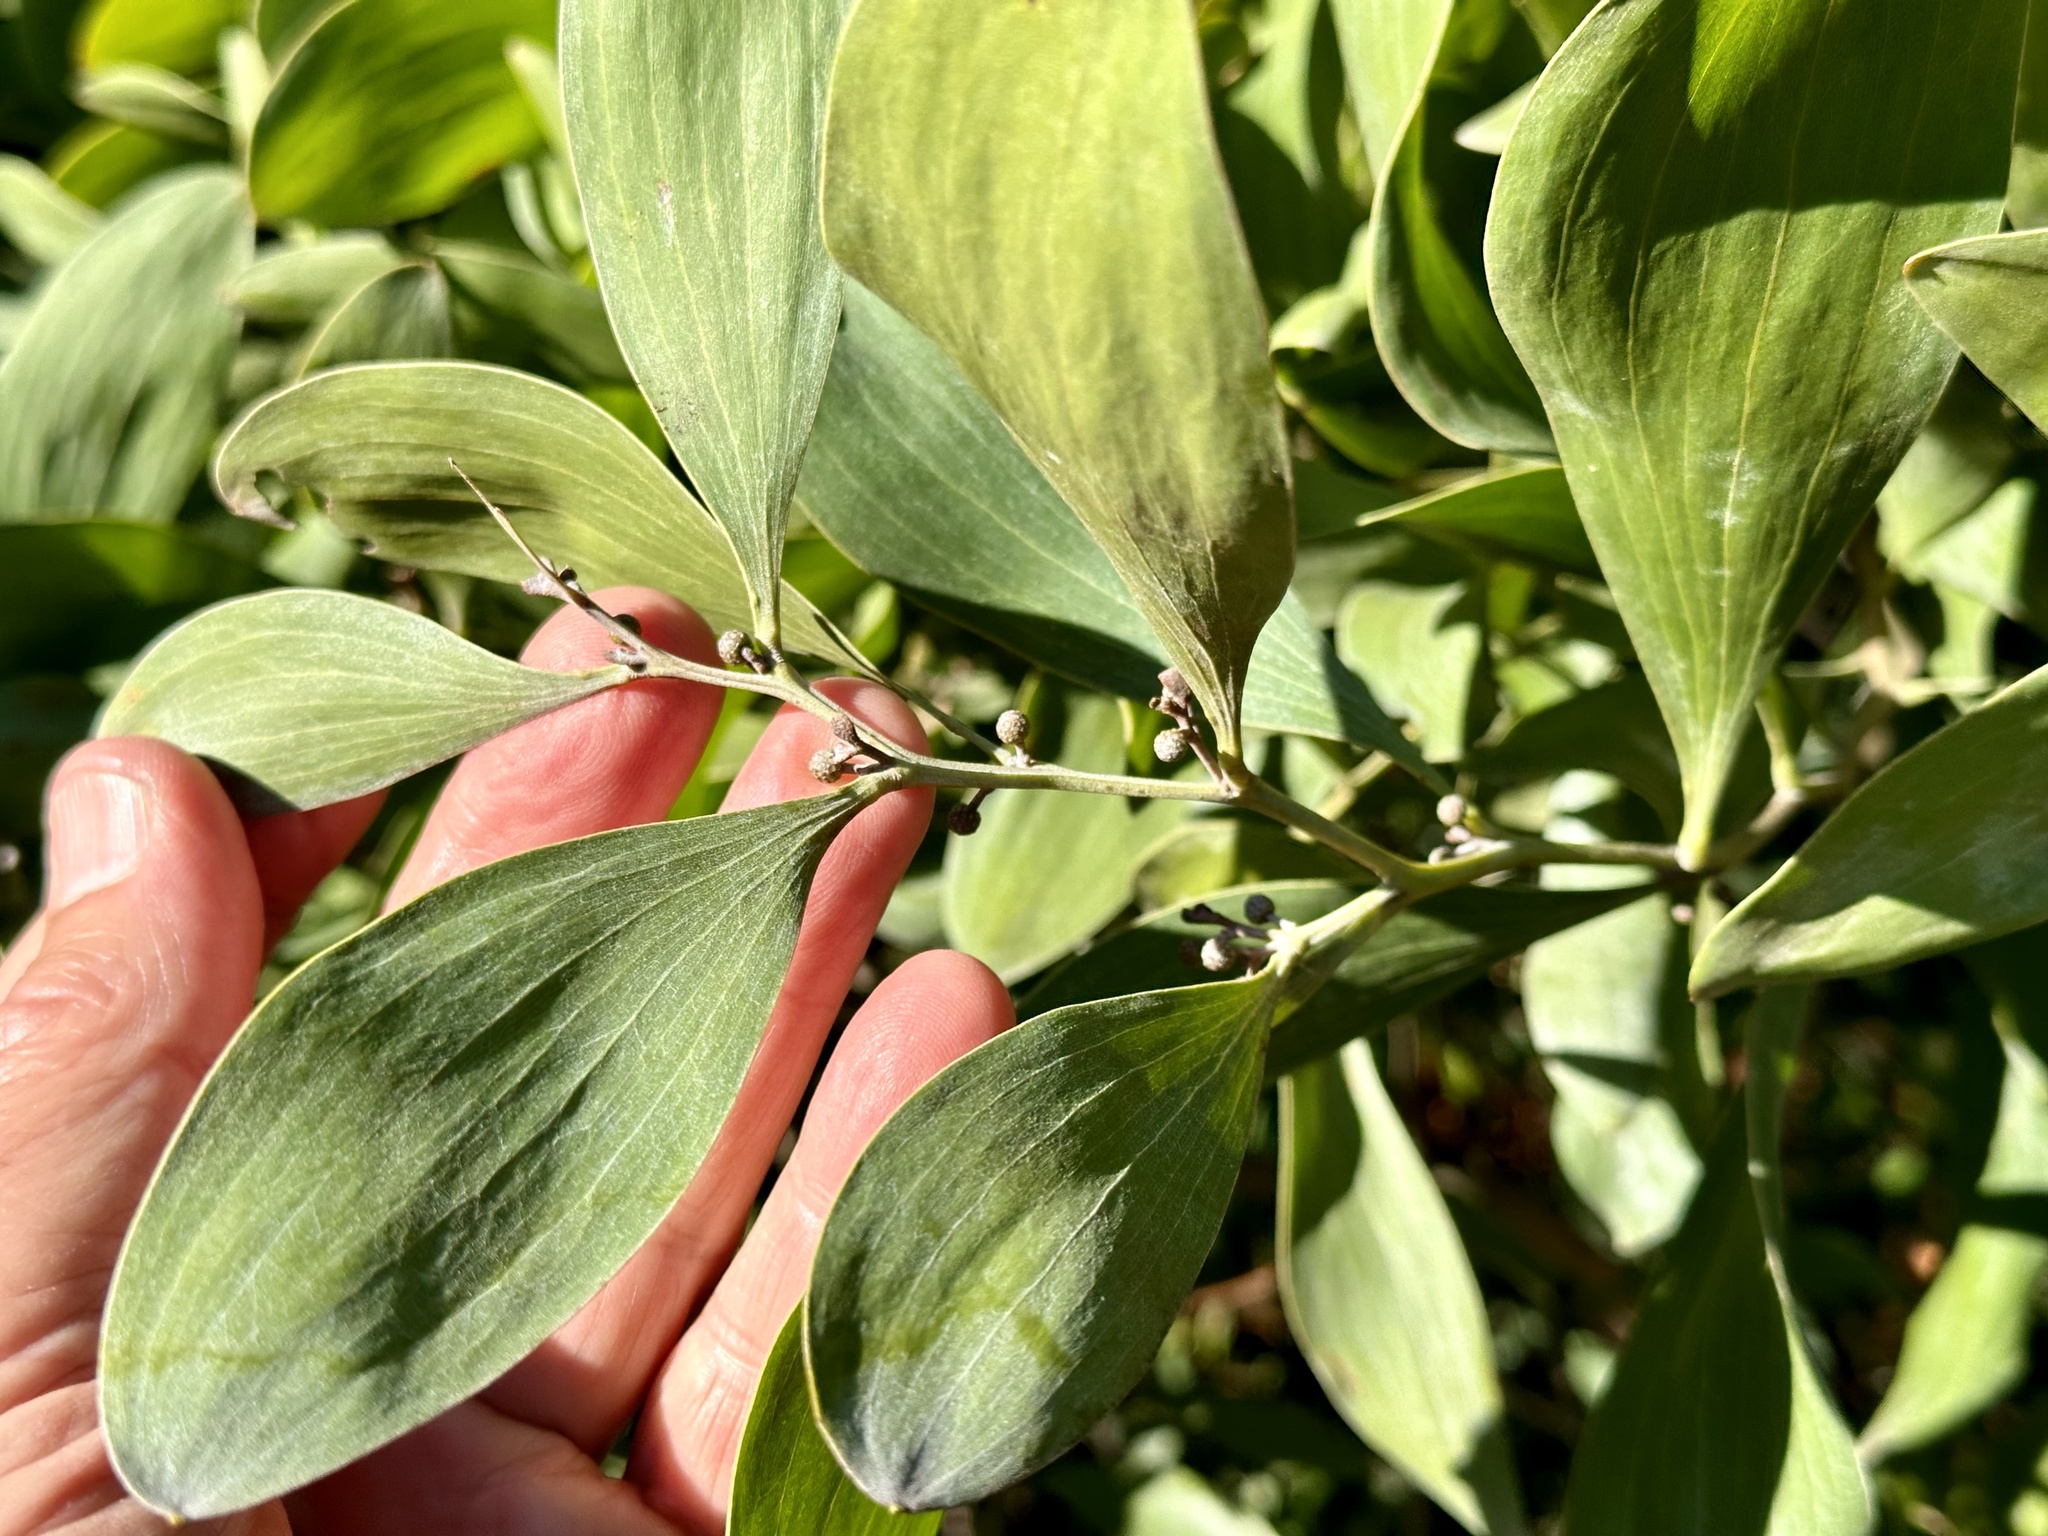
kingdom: Plantae
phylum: Tracheophyta
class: Magnoliopsida
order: Fabales
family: Fabaceae
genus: Acacia
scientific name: Acacia melanoxylon
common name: Blackwood
